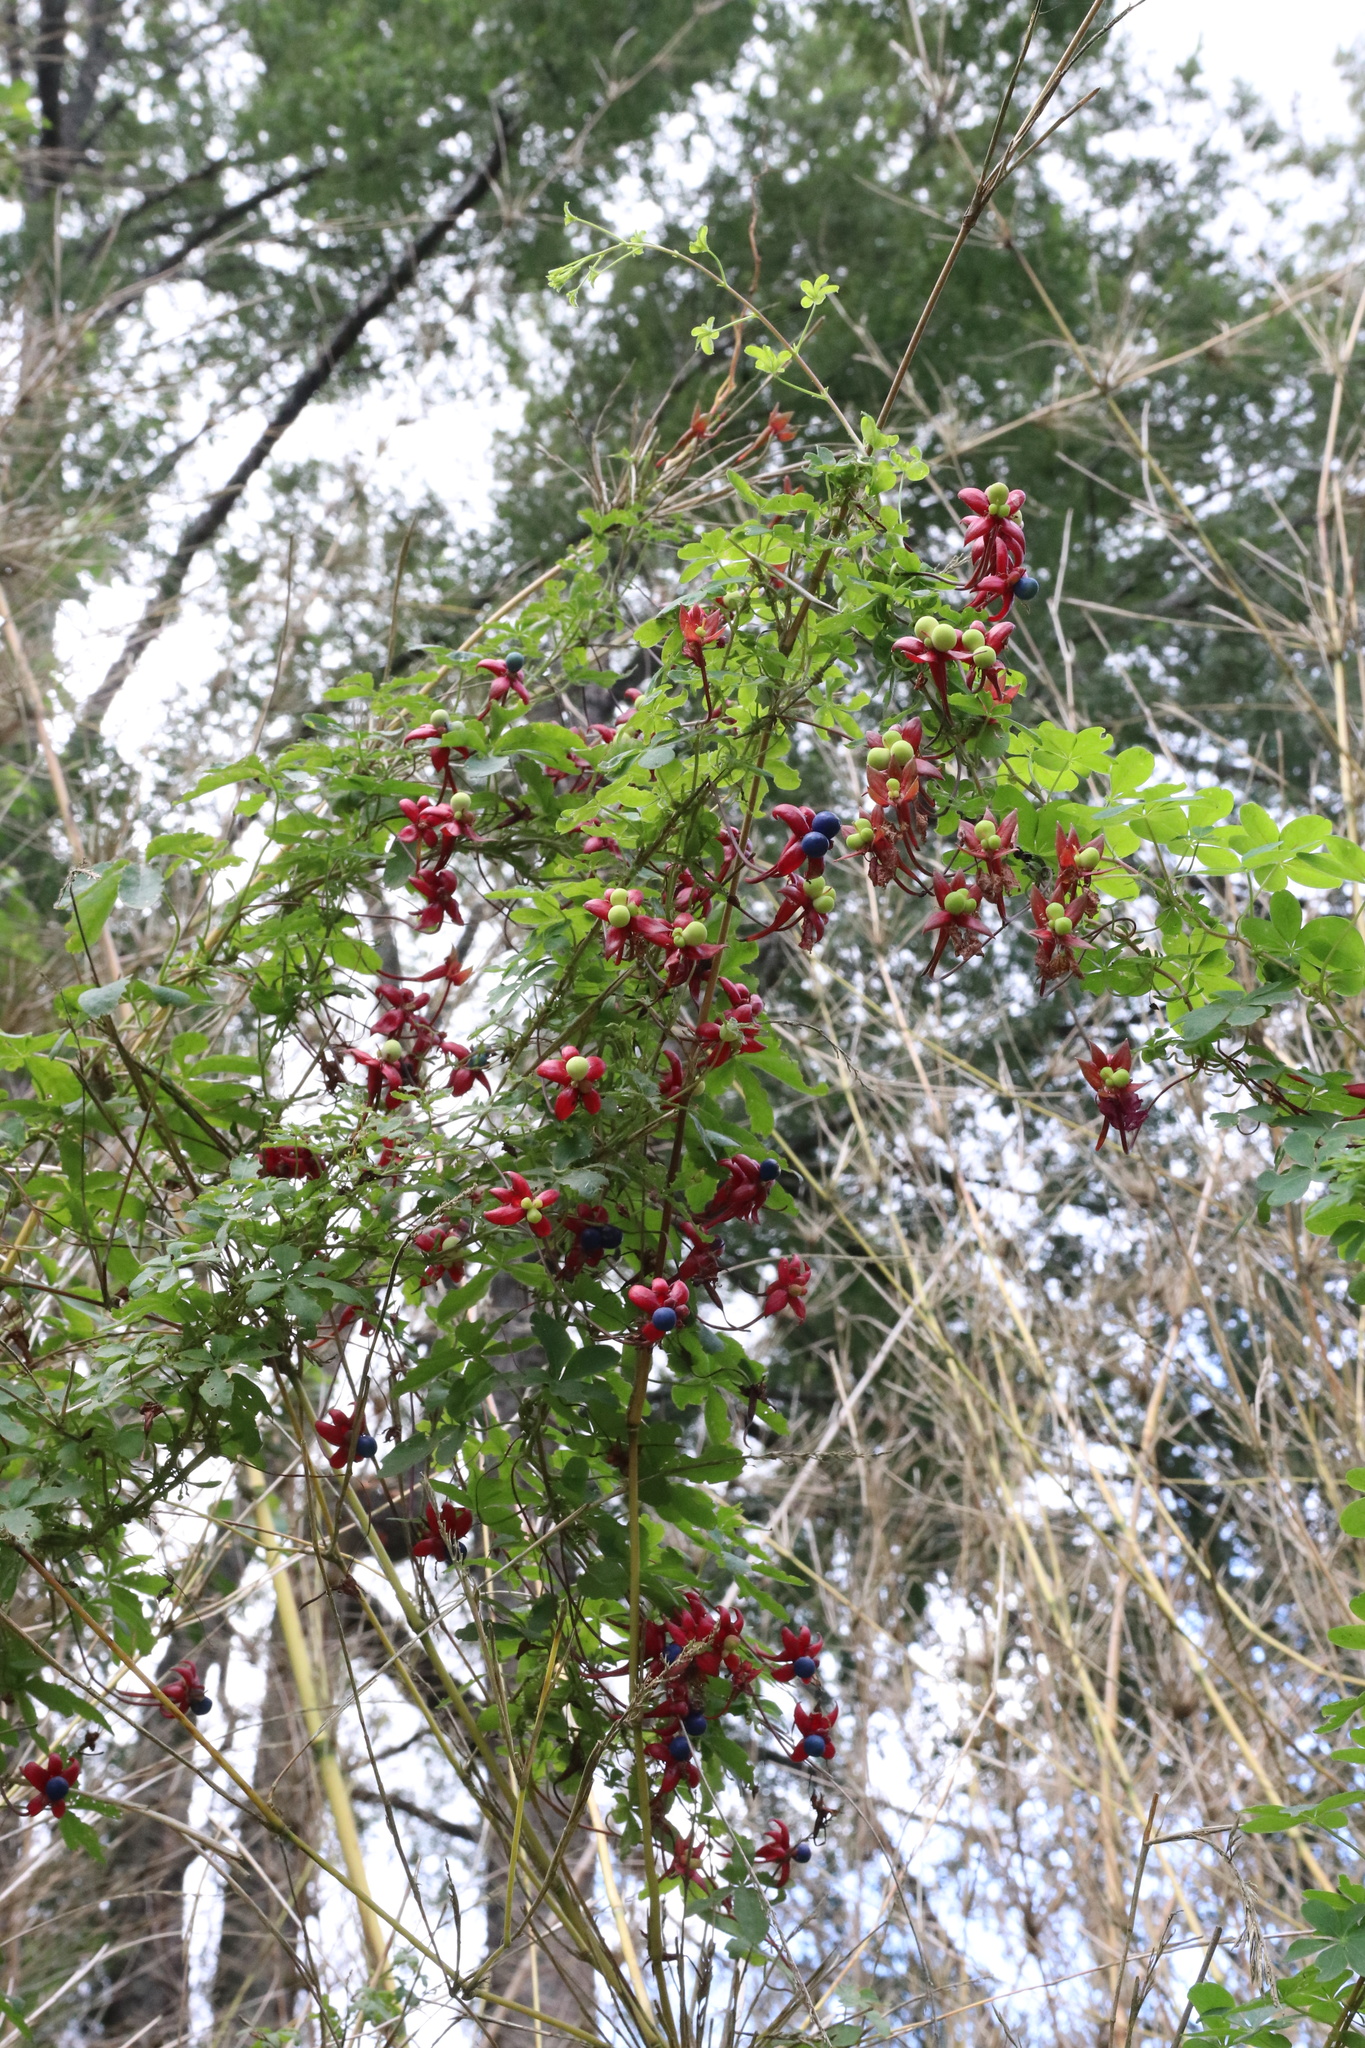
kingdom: Plantae
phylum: Tracheophyta
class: Magnoliopsida
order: Brassicales
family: Tropaeolaceae
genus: Tropaeolum
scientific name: Tropaeolum speciosum
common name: Flame nasturtium
